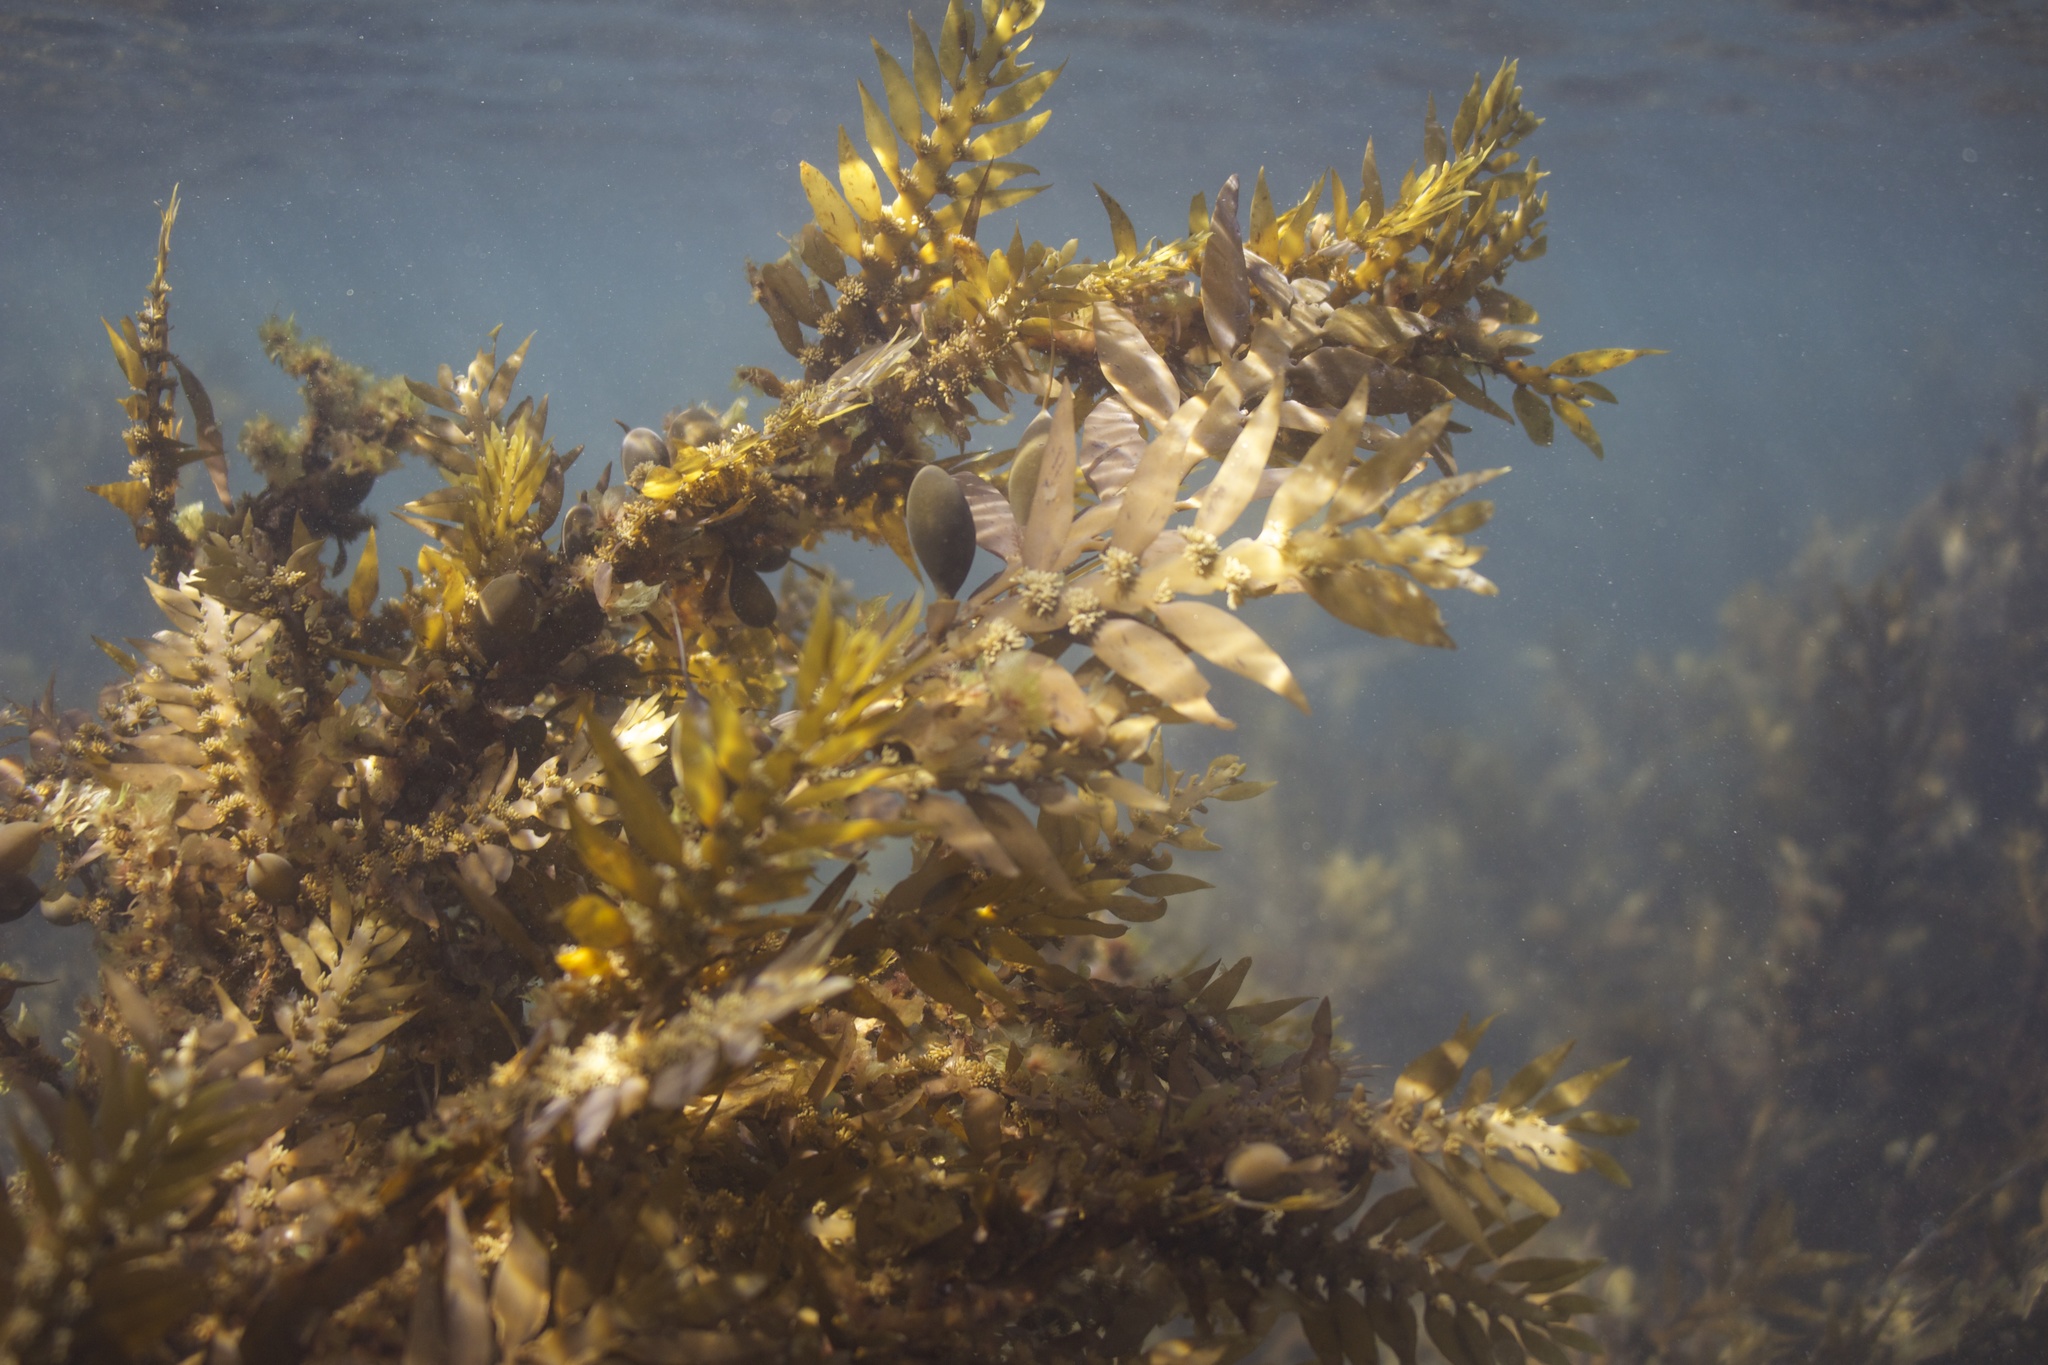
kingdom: Chromista
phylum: Ochrophyta
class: Phaeophyceae
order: Fucales
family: Sargassaceae
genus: Carpophyllum
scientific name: Carpophyllum maschalocarpum
